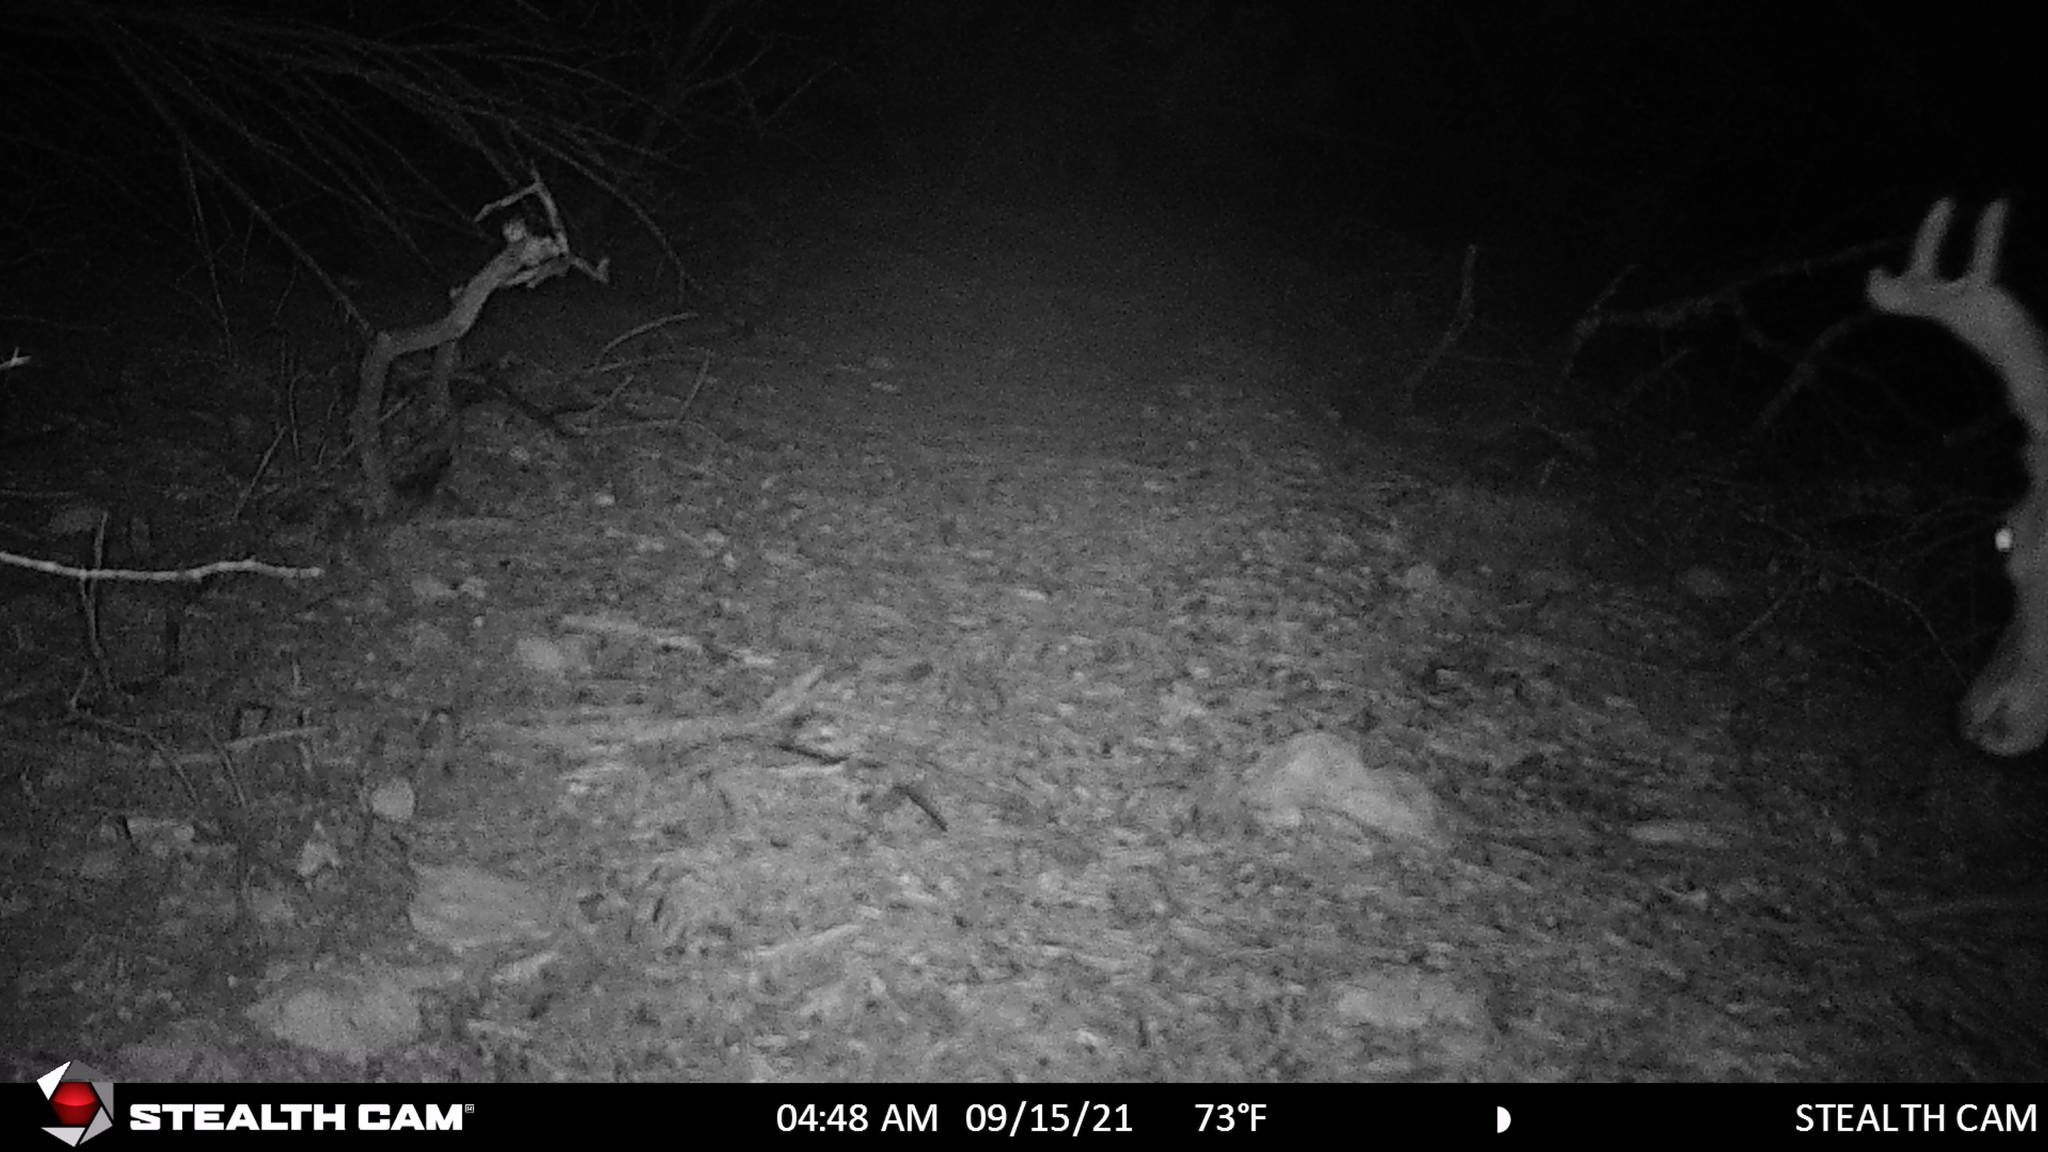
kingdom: Animalia
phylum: Chordata
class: Mammalia
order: Artiodactyla
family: Cervidae
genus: Odocoileus
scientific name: Odocoileus virginianus
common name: White-tailed deer
